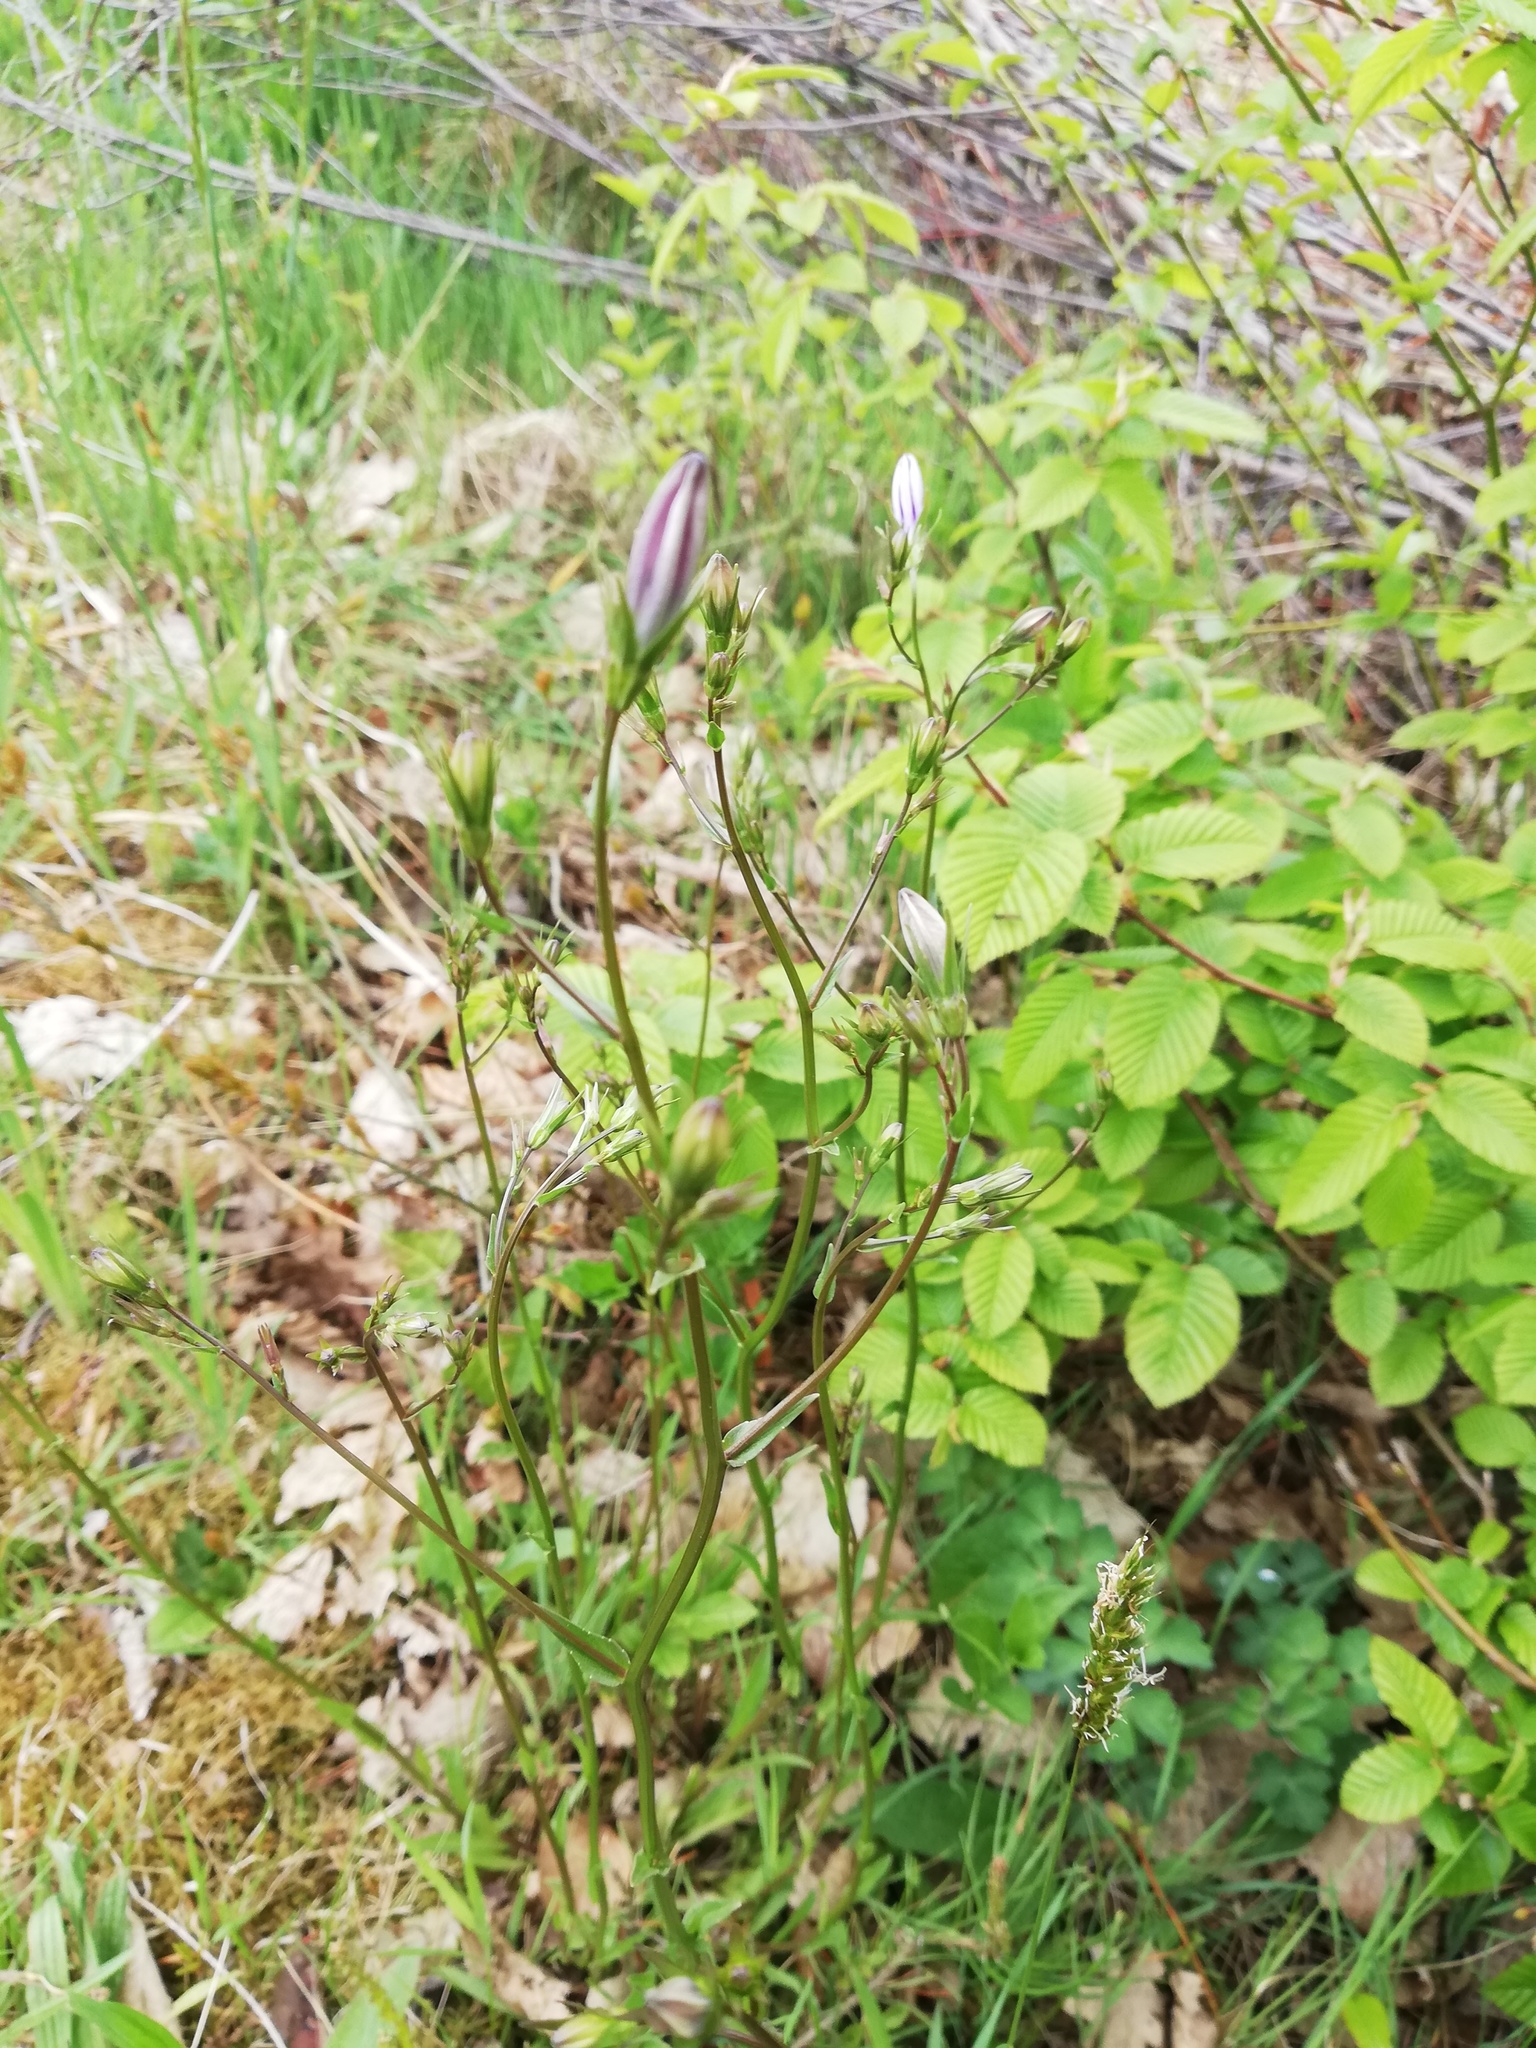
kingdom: Plantae
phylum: Tracheophyta
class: Magnoliopsida
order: Asterales
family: Campanulaceae
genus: Campanula
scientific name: Campanula patula
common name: Spreading bellflower
